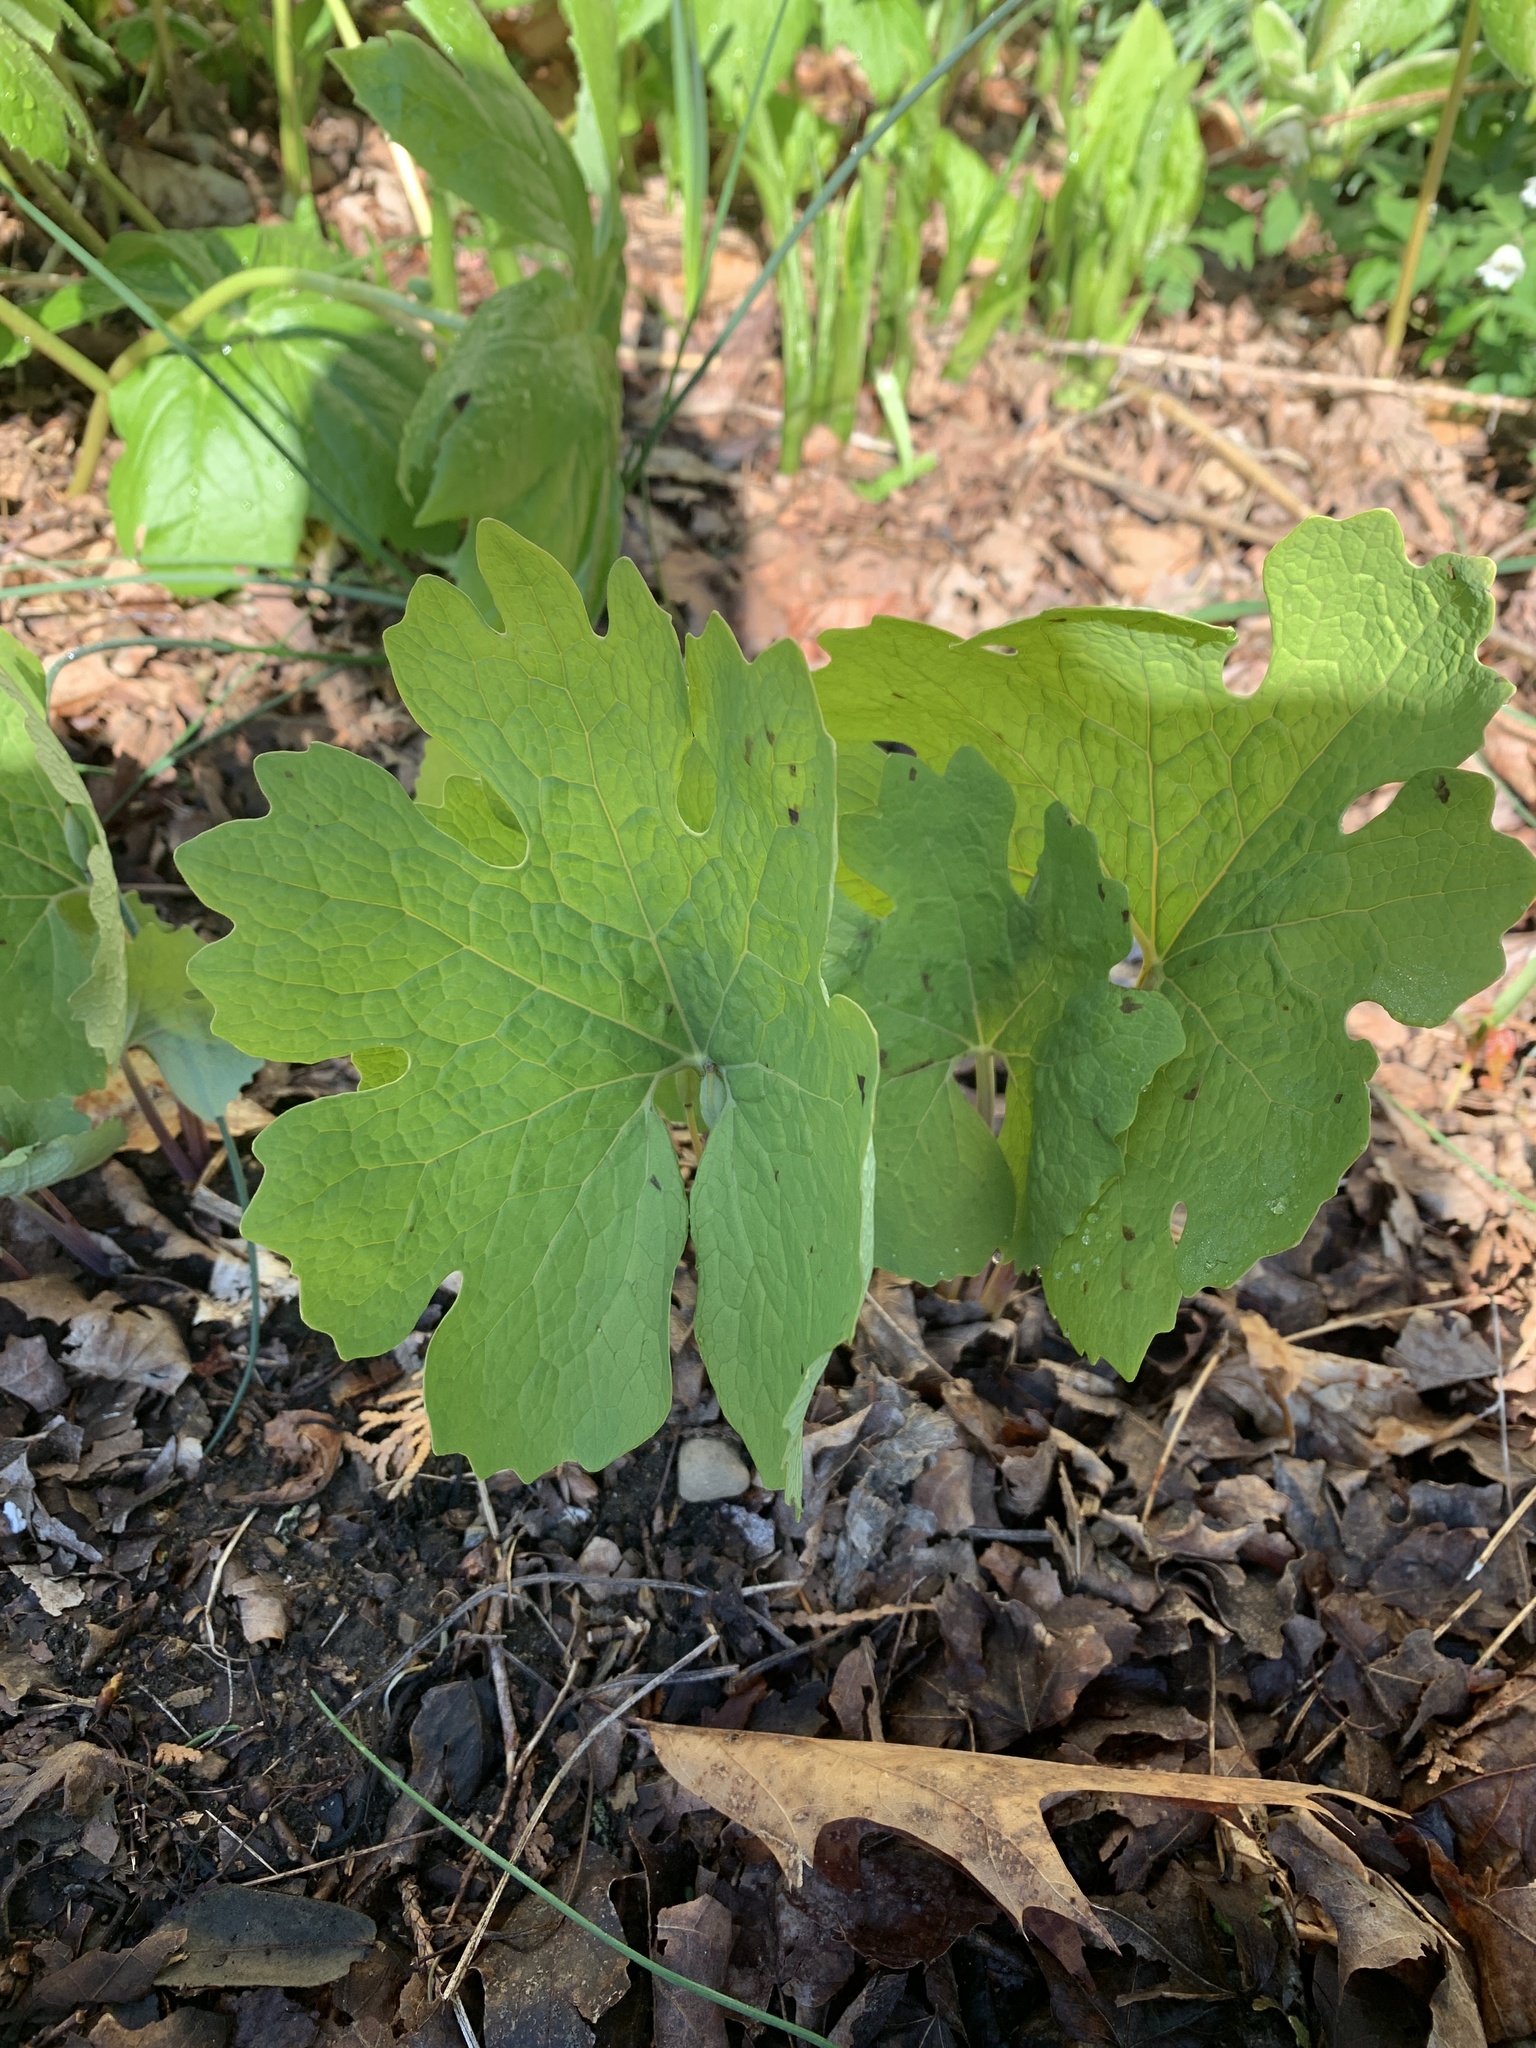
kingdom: Plantae
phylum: Tracheophyta
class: Magnoliopsida
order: Ranunculales
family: Papaveraceae
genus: Sanguinaria
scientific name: Sanguinaria canadensis
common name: Bloodroot
